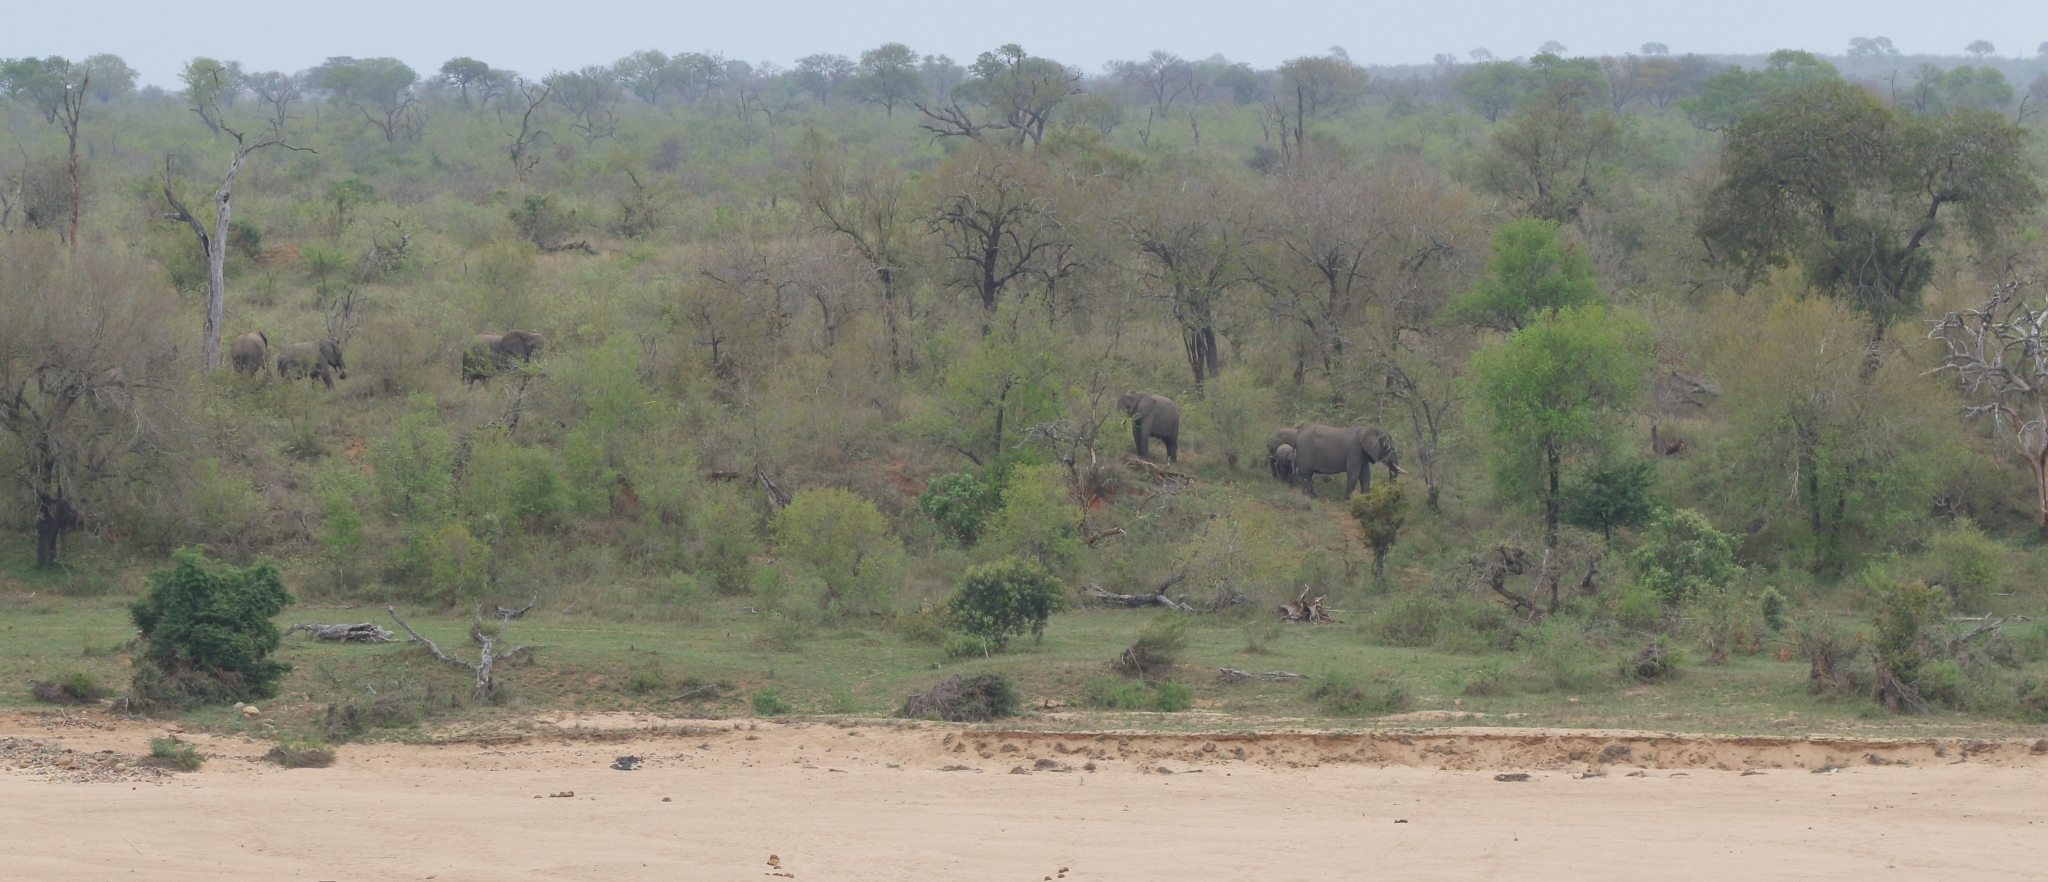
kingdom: Animalia
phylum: Chordata
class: Mammalia
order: Proboscidea
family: Elephantidae
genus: Loxodonta
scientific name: Loxodonta africana
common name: African elephant
